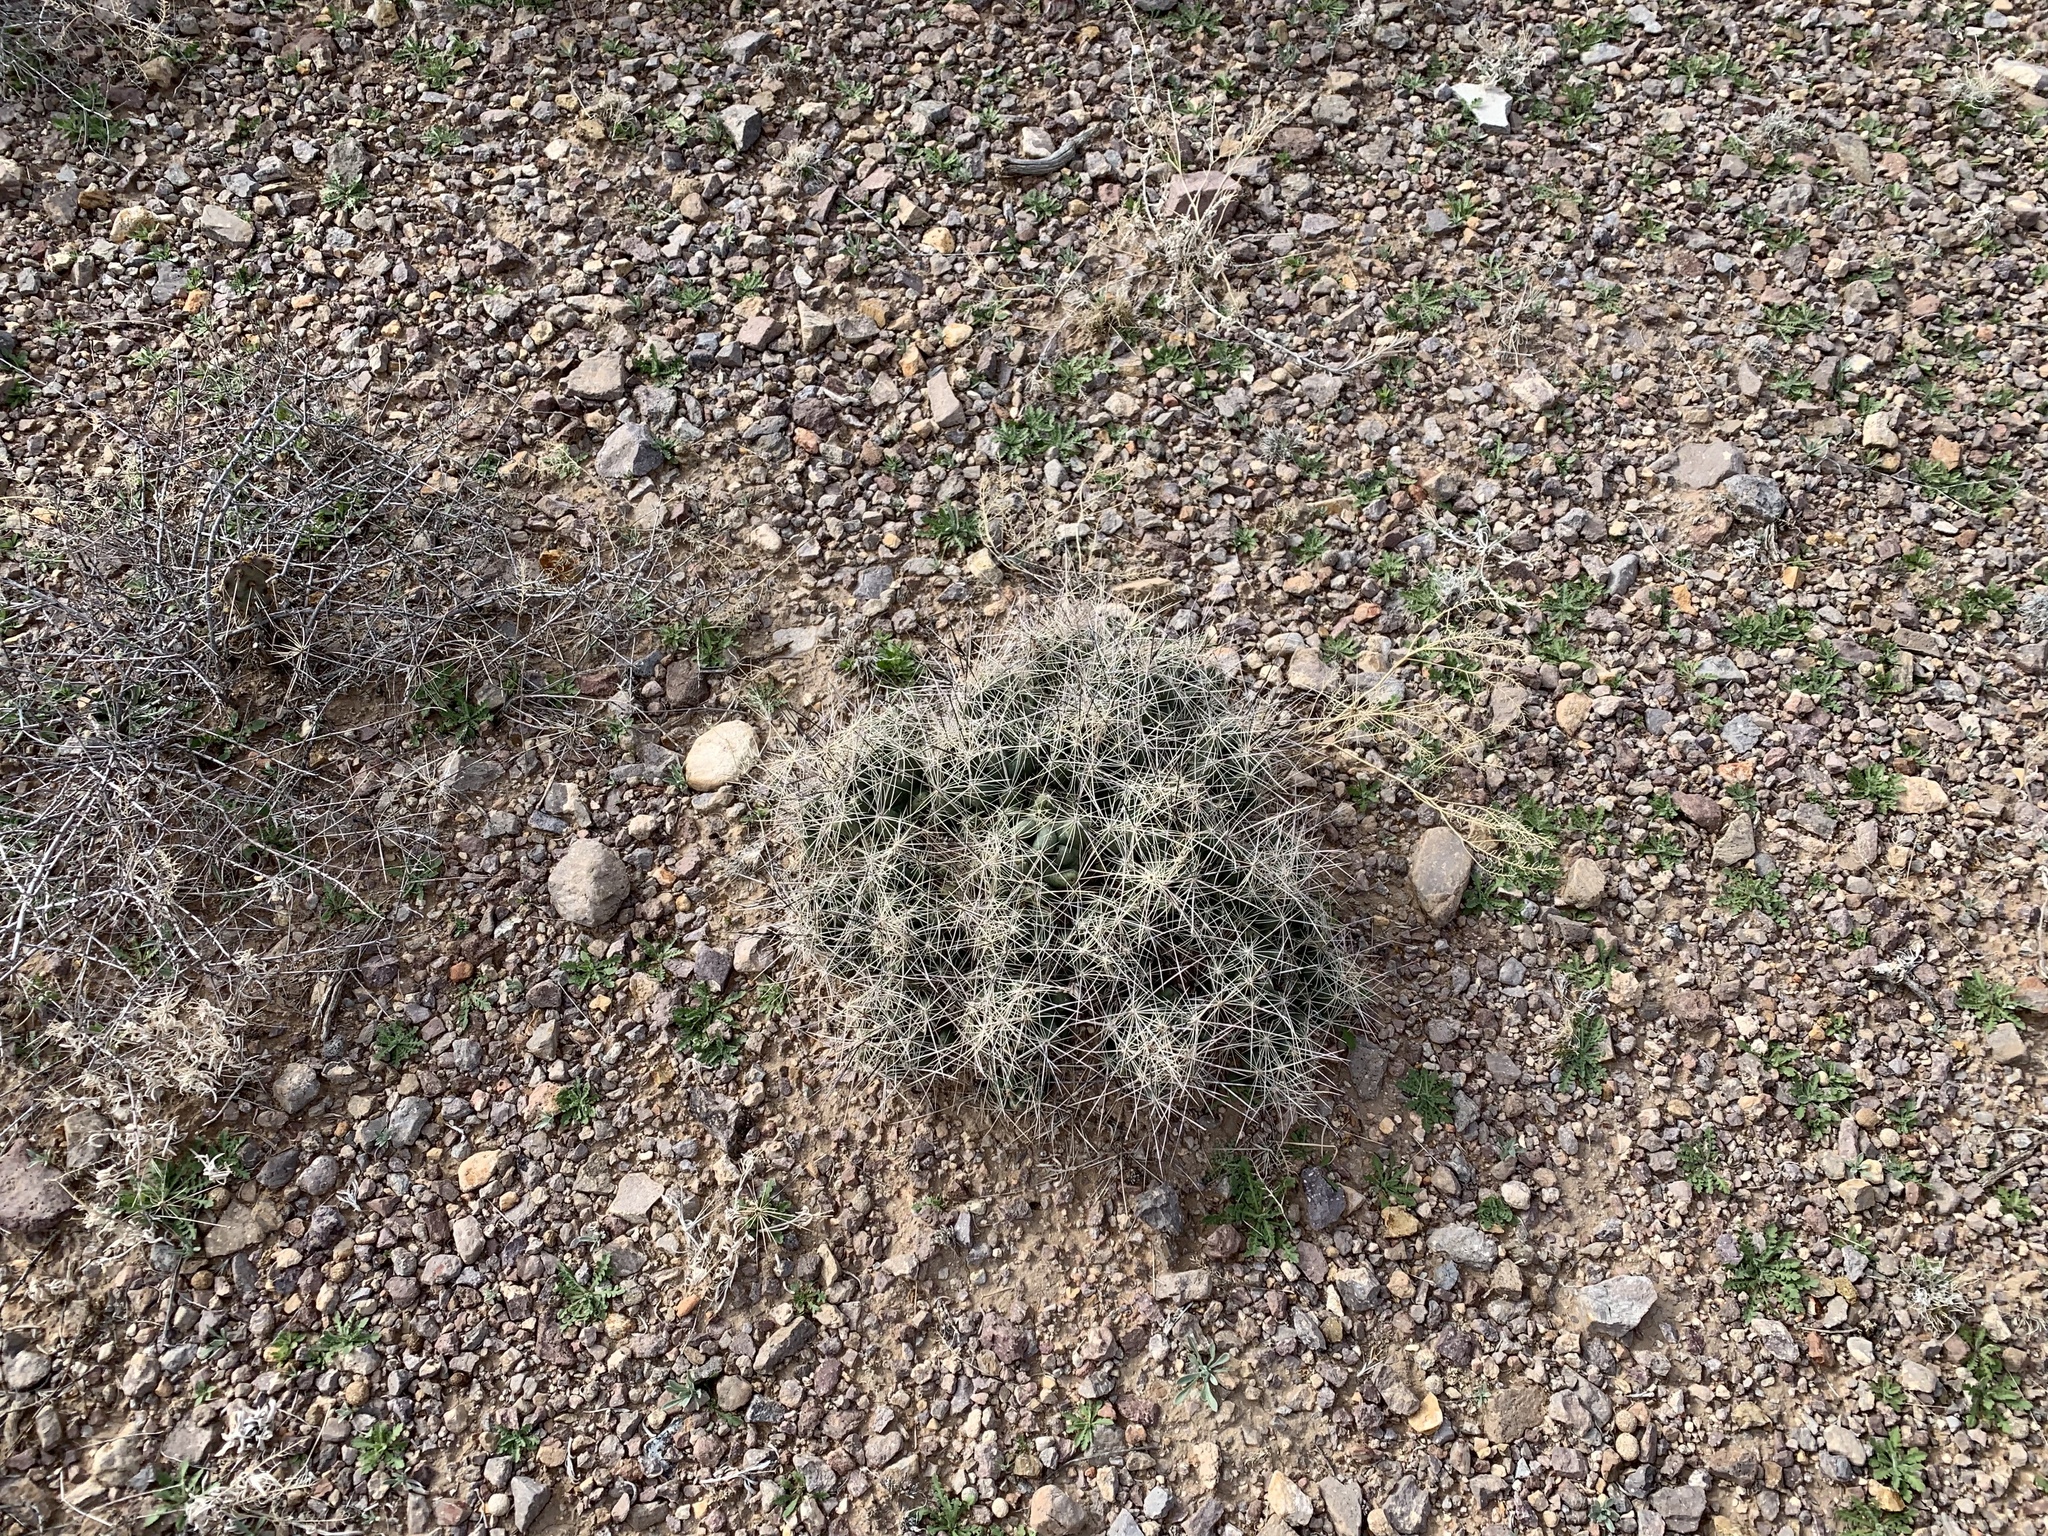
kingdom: Plantae
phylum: Tracheophyta
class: Magnoliopsida
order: Caryophyllales
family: Cactaceae
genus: Coryphantha
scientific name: Coryphantha macromeris
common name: Nipple beehive cactus
